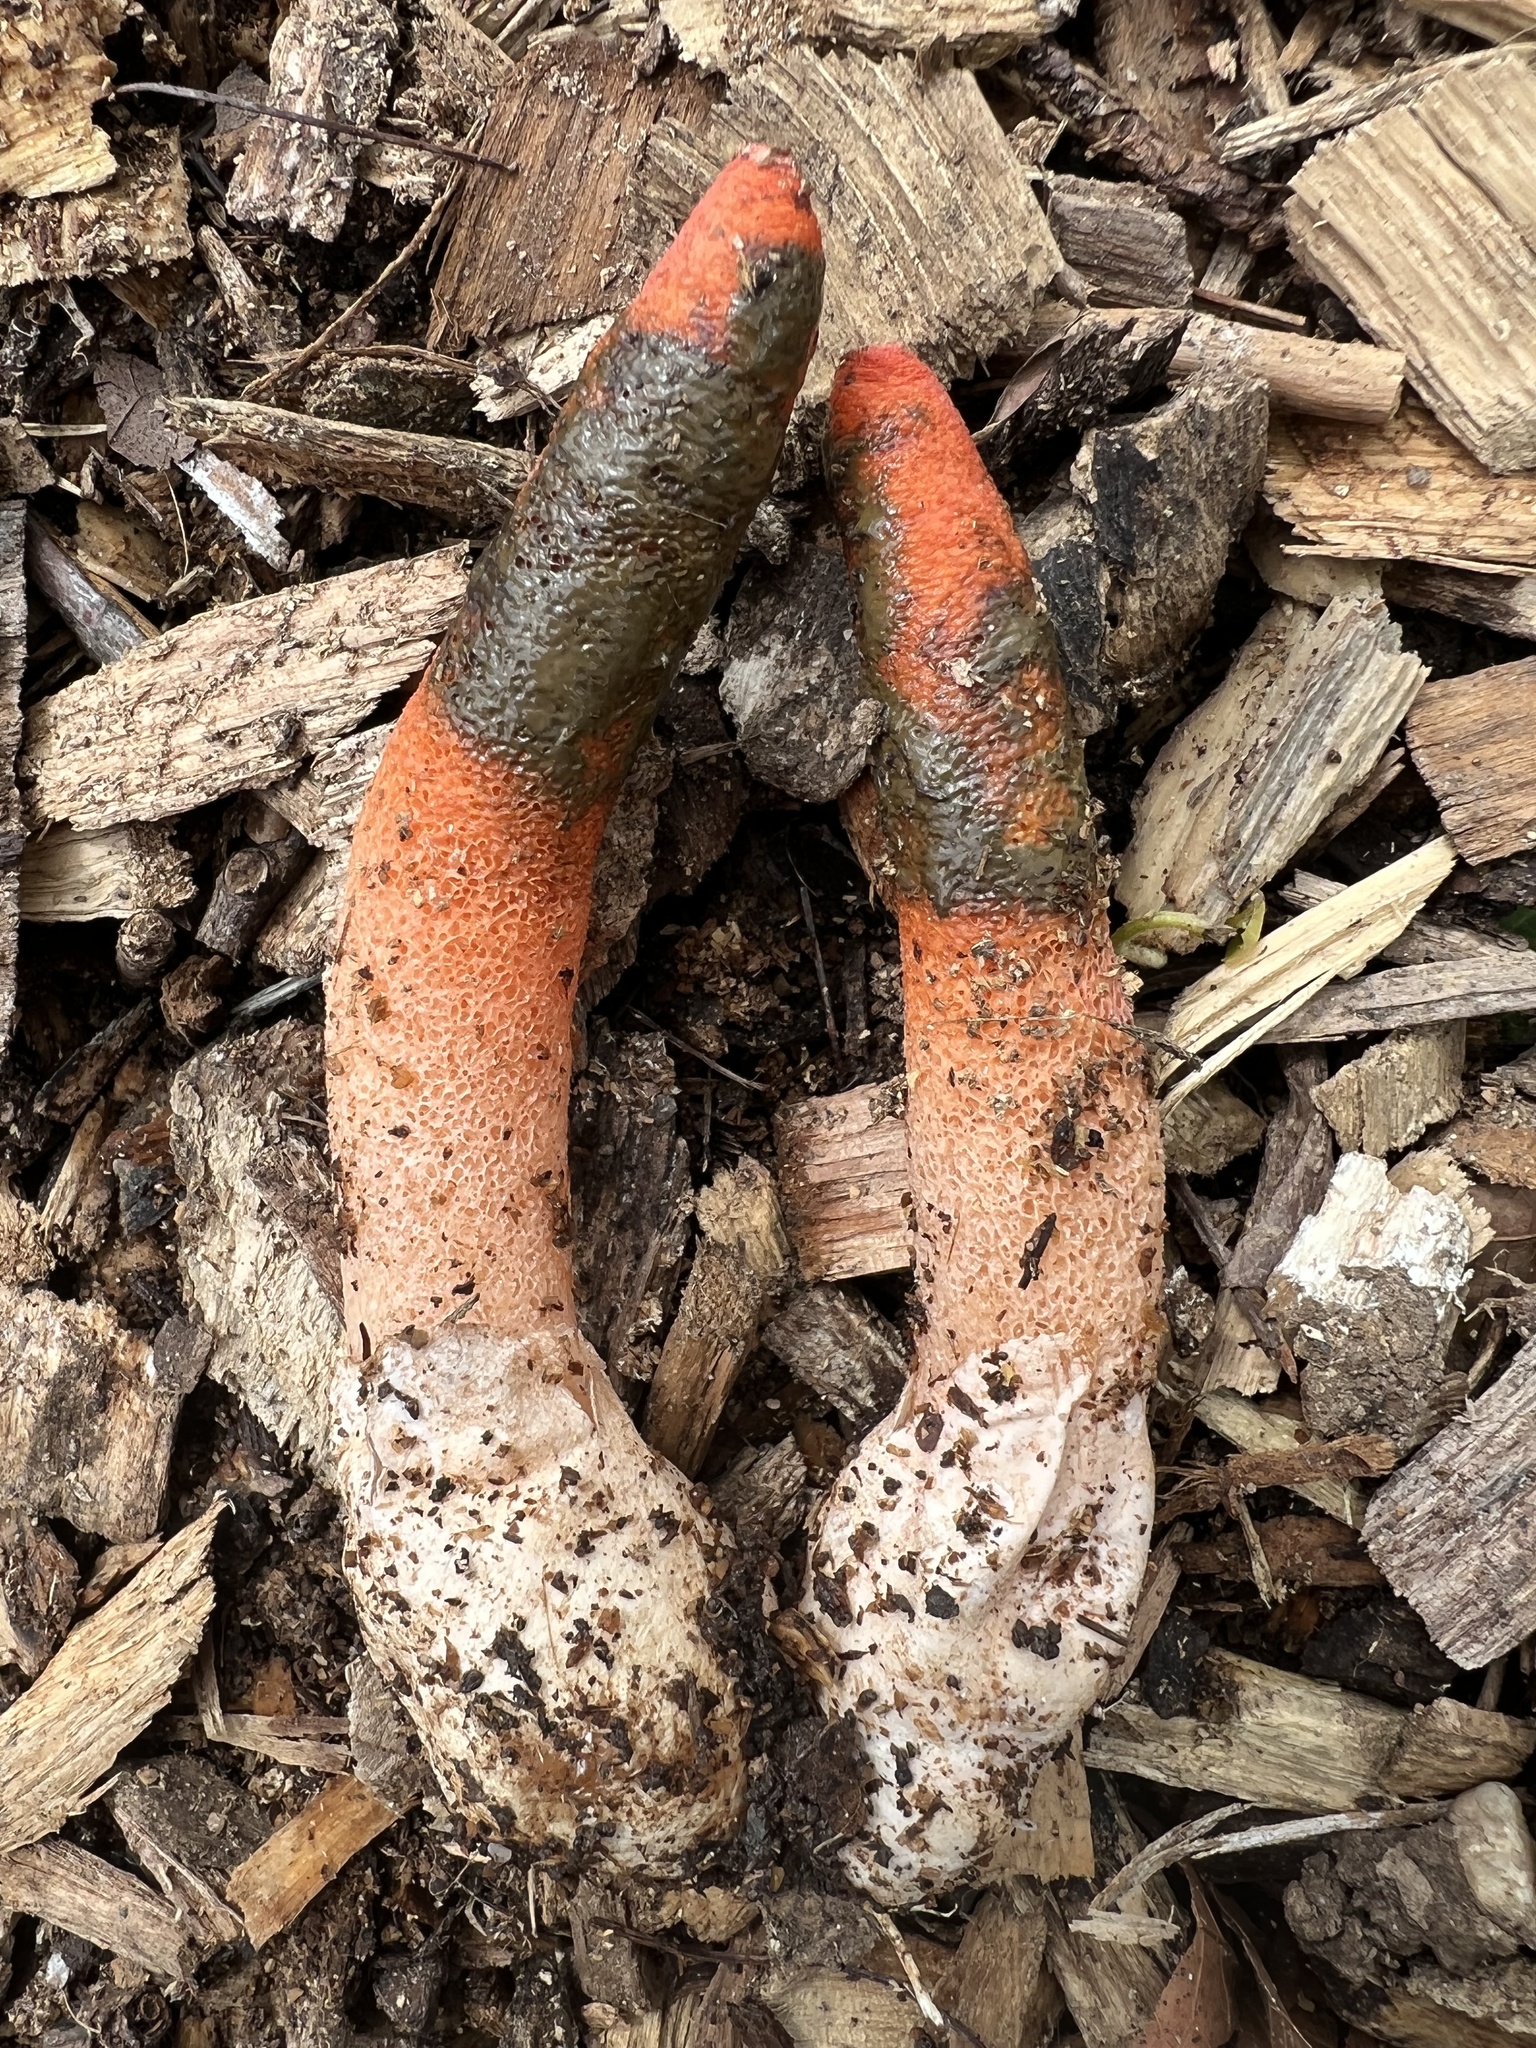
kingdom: Fungi
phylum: Basidiomycota
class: Agaricomycetes
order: Phallales
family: Phallaceae
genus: Mutinus
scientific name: Mutinus elegans
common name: Devil's dipstick
